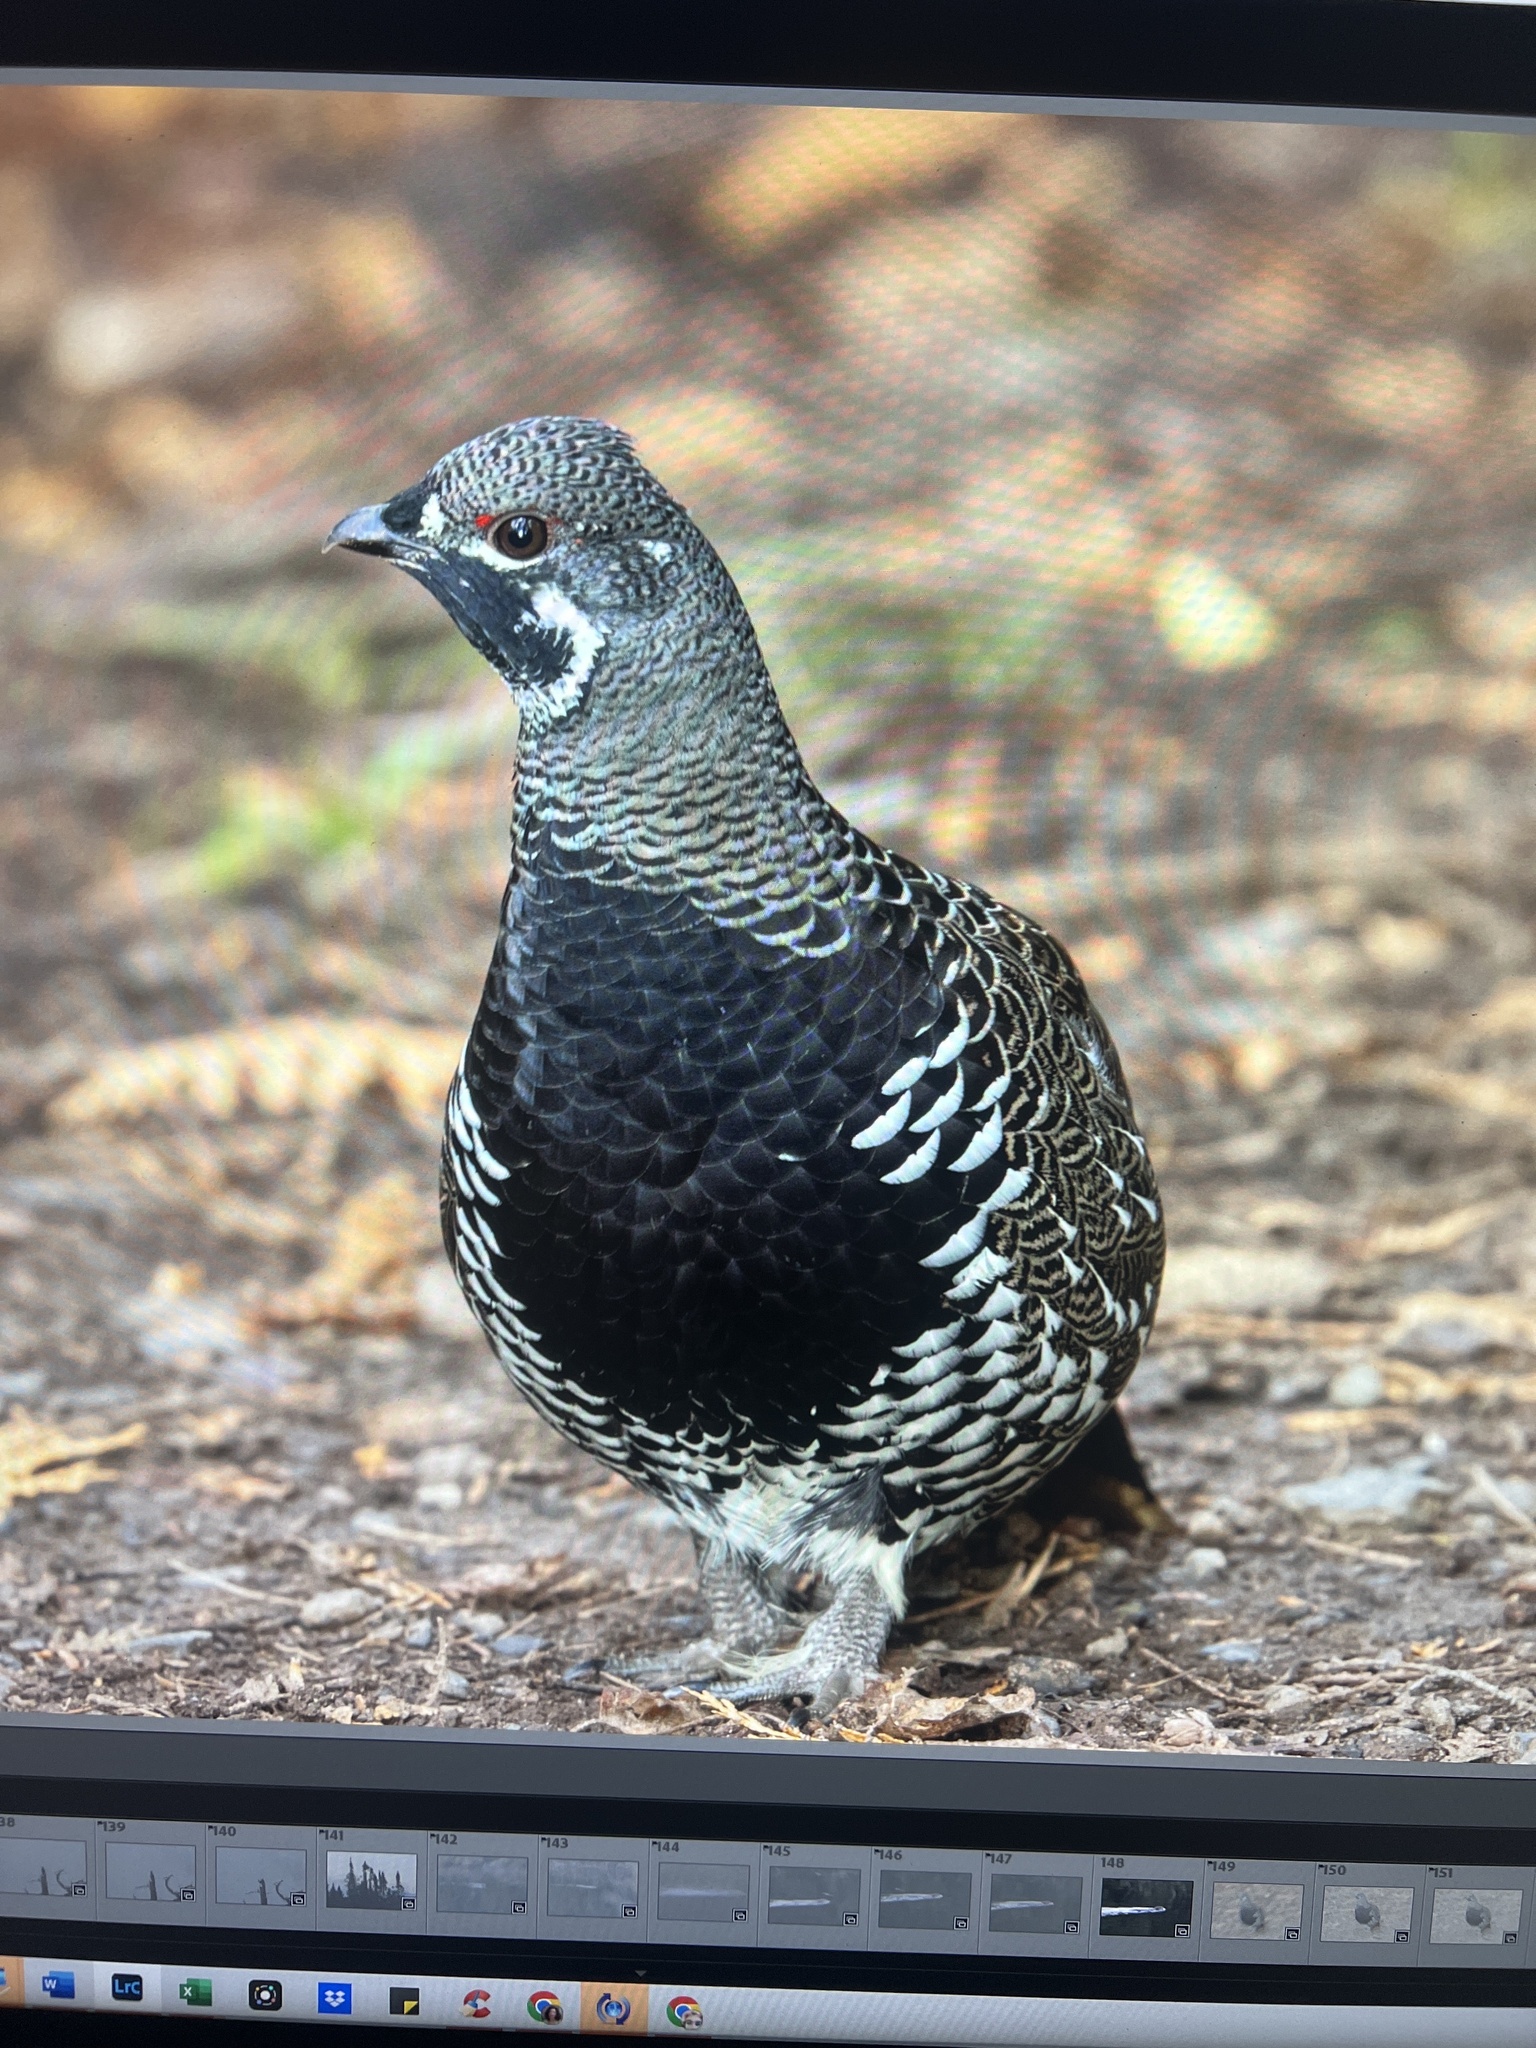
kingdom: Animalia
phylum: Chordata
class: Aves
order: Galliformes
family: Phasianidae
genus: Canachites
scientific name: Canachites canadensis
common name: Spruce grouse
